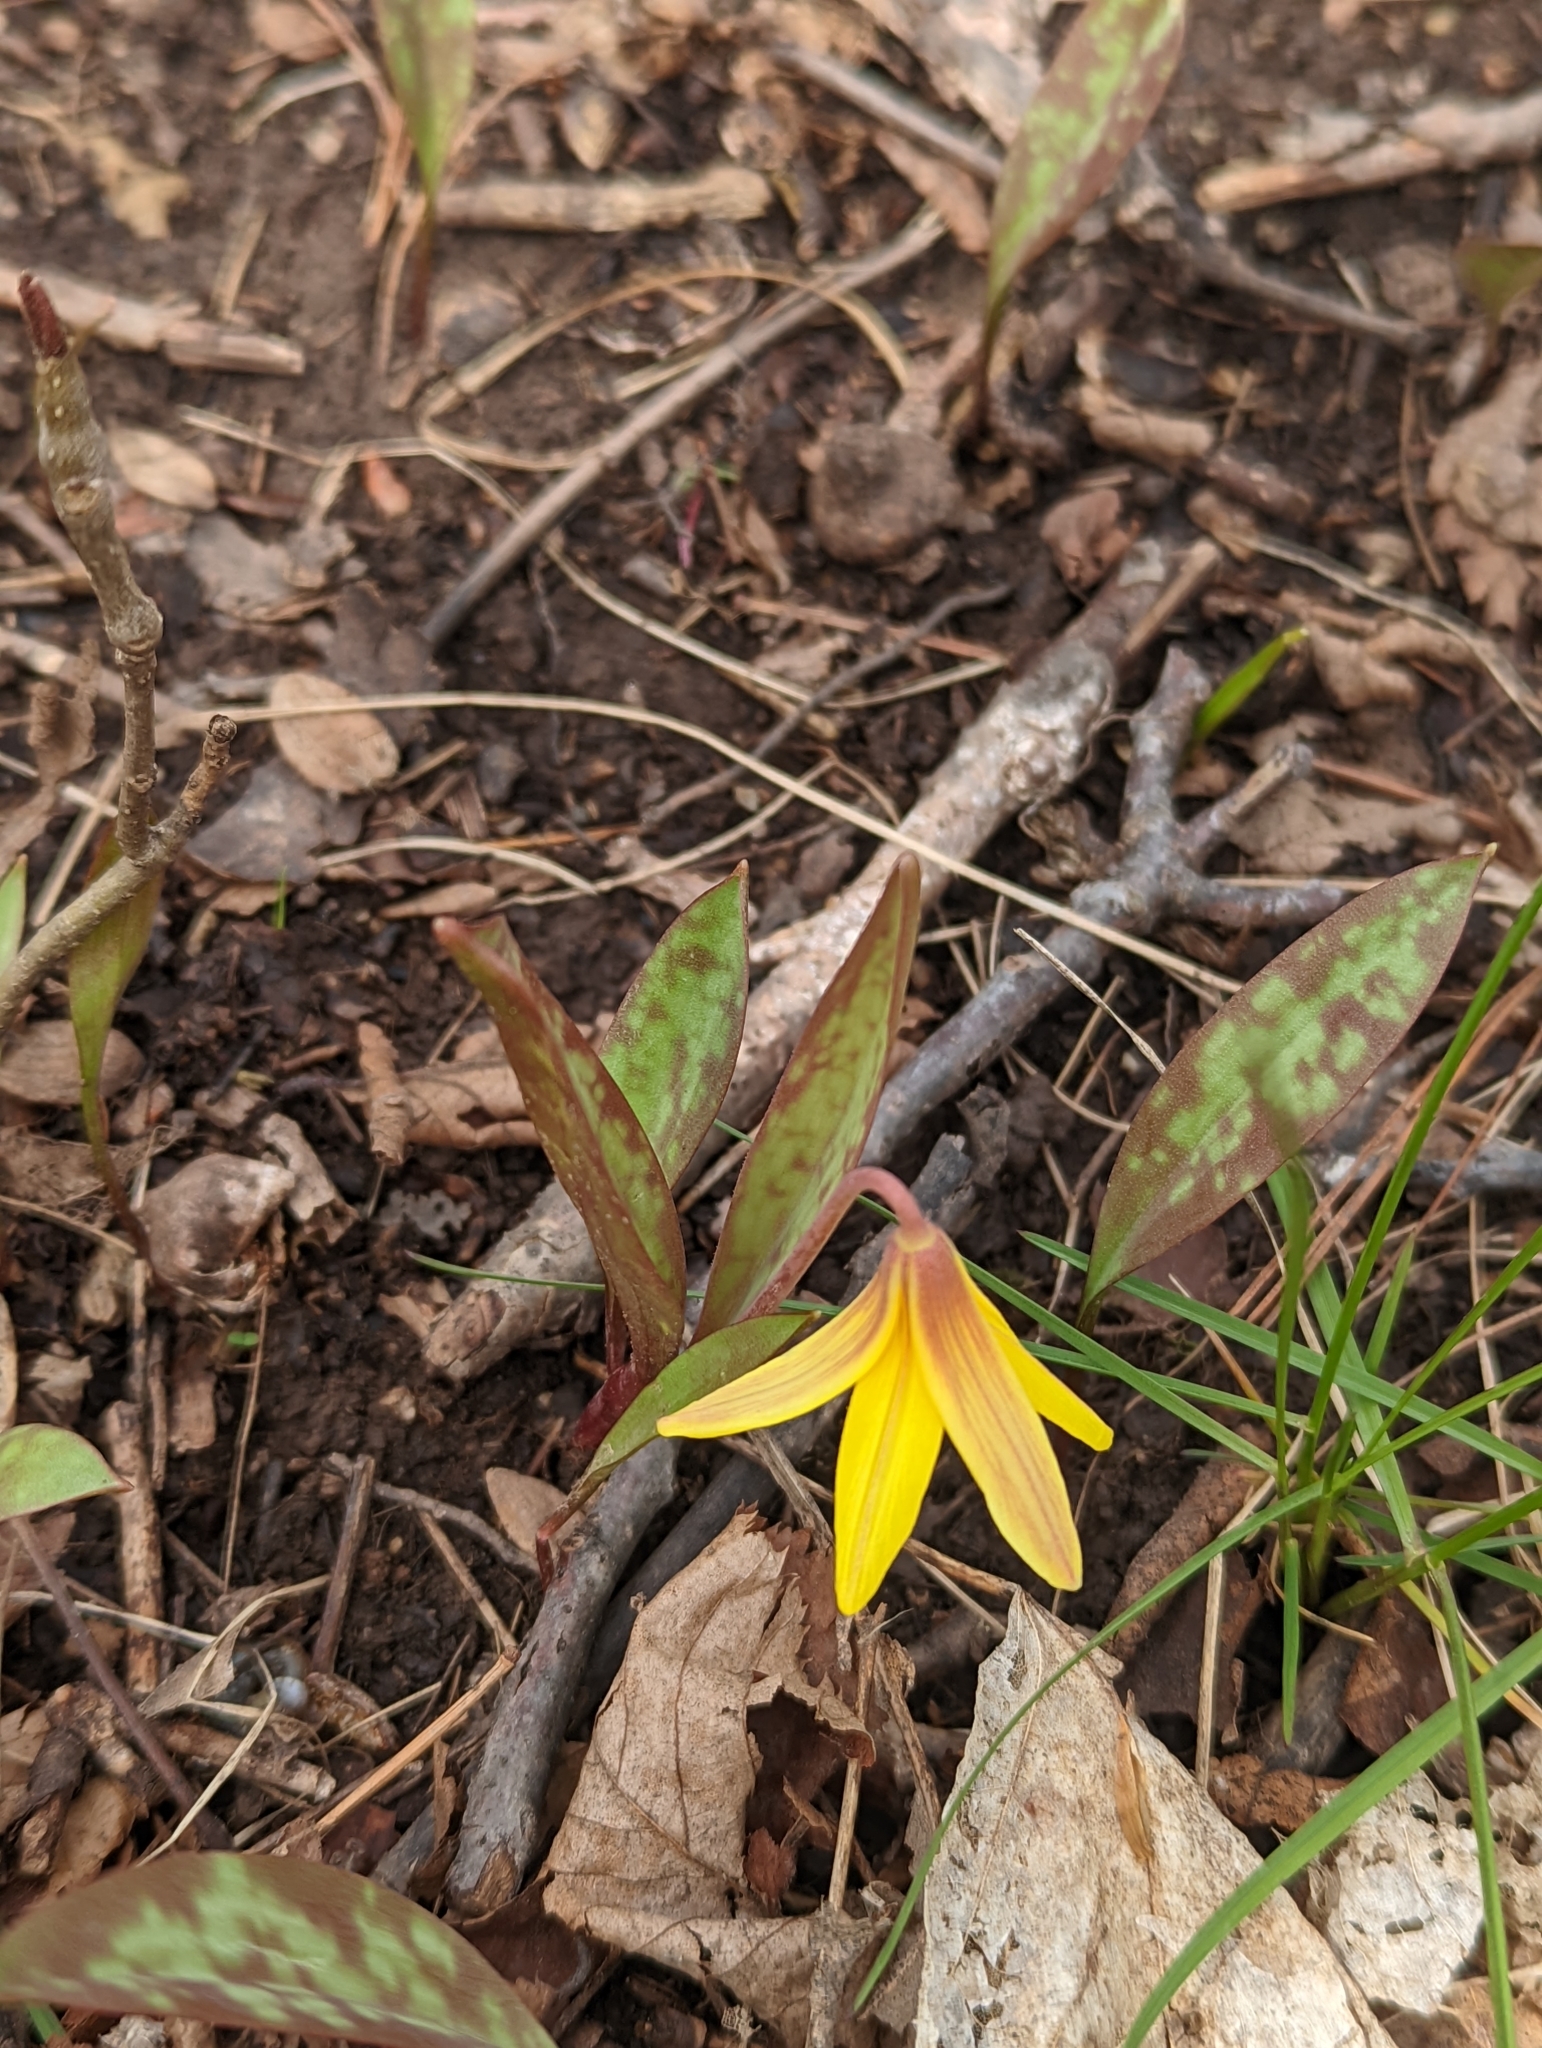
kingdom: Plantae
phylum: Tracheophyta
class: Liliopsida
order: Liliales
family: Liliaceae
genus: Erythronium
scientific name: Erythronium americanum
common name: Yellow adder's-tongue
